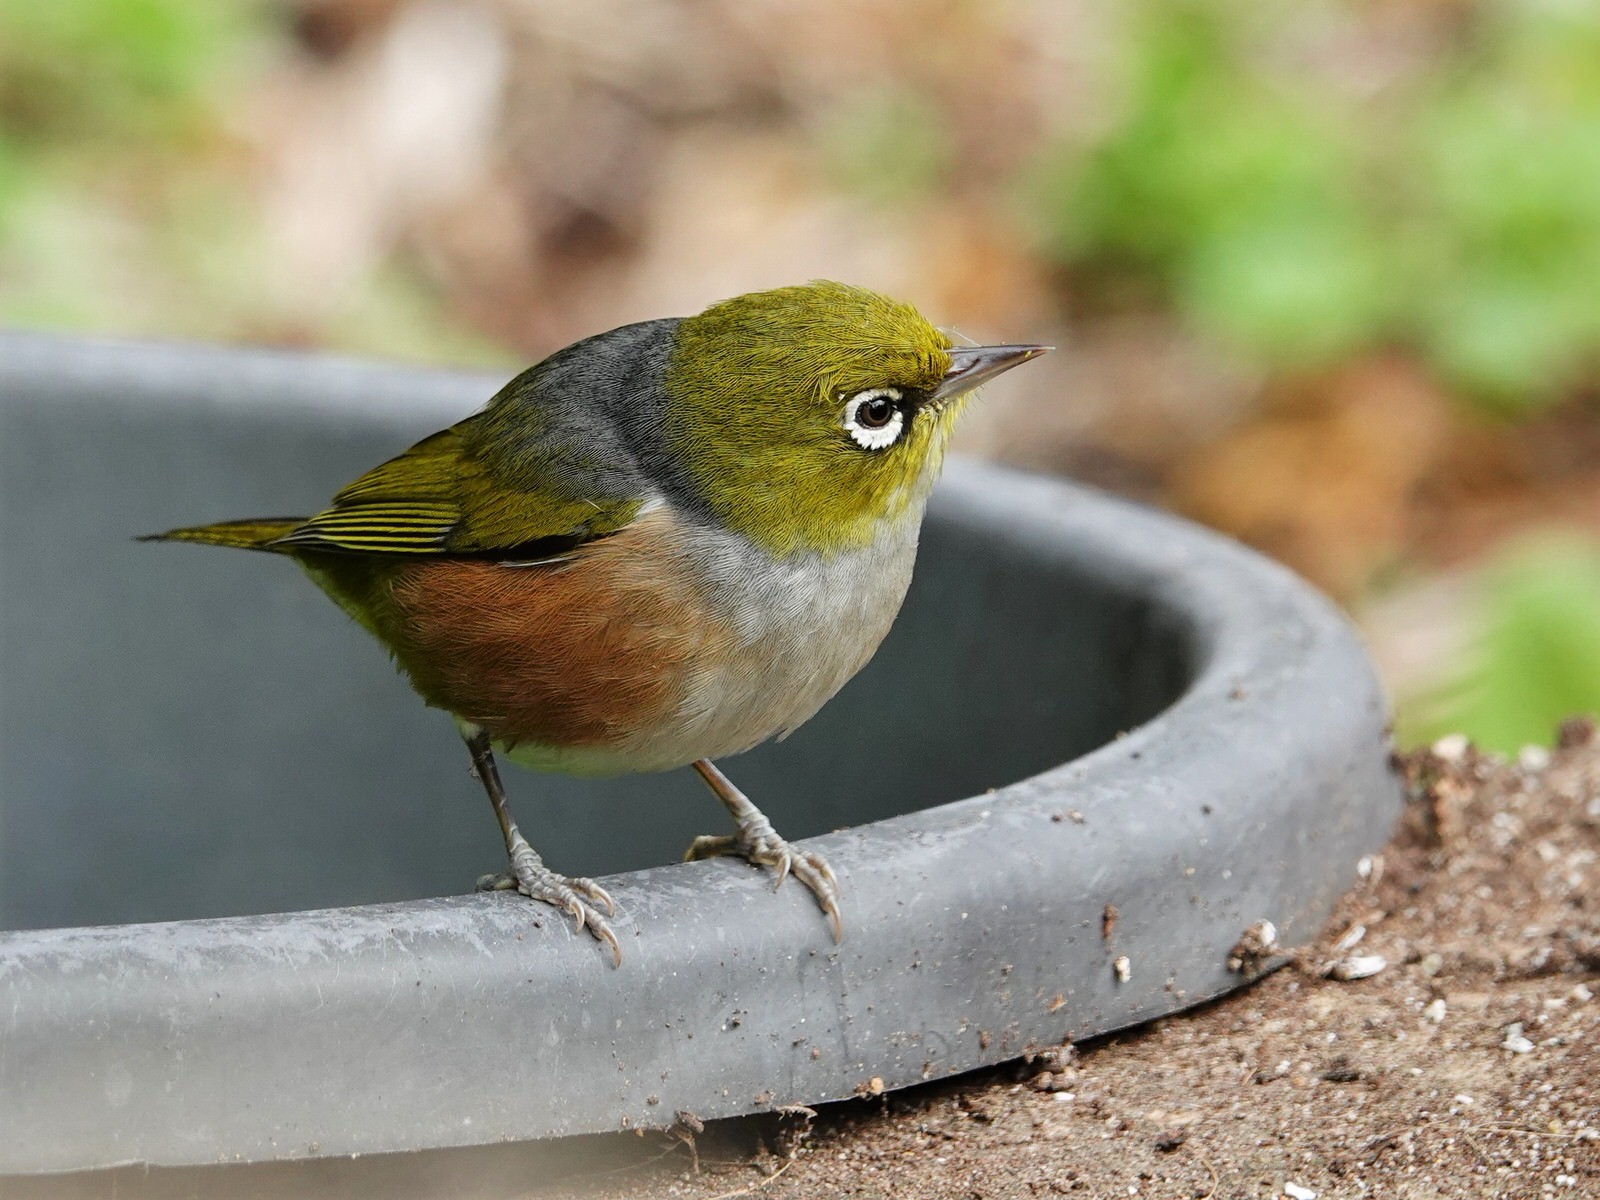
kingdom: Animalia
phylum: Chordata
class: Aves
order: Passeriformes
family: Zosteropidae
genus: Zosterops
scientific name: Zosterops lateralis
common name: Silvereye
